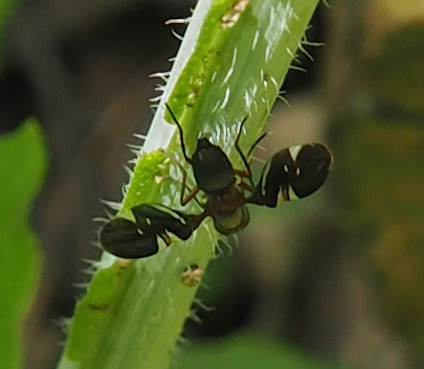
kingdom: Animalia
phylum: Arthropoda
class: Insecta
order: Diptera
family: Ulidiidae
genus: Delphinia
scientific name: Delphinia picta
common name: Common picture-winged fly
